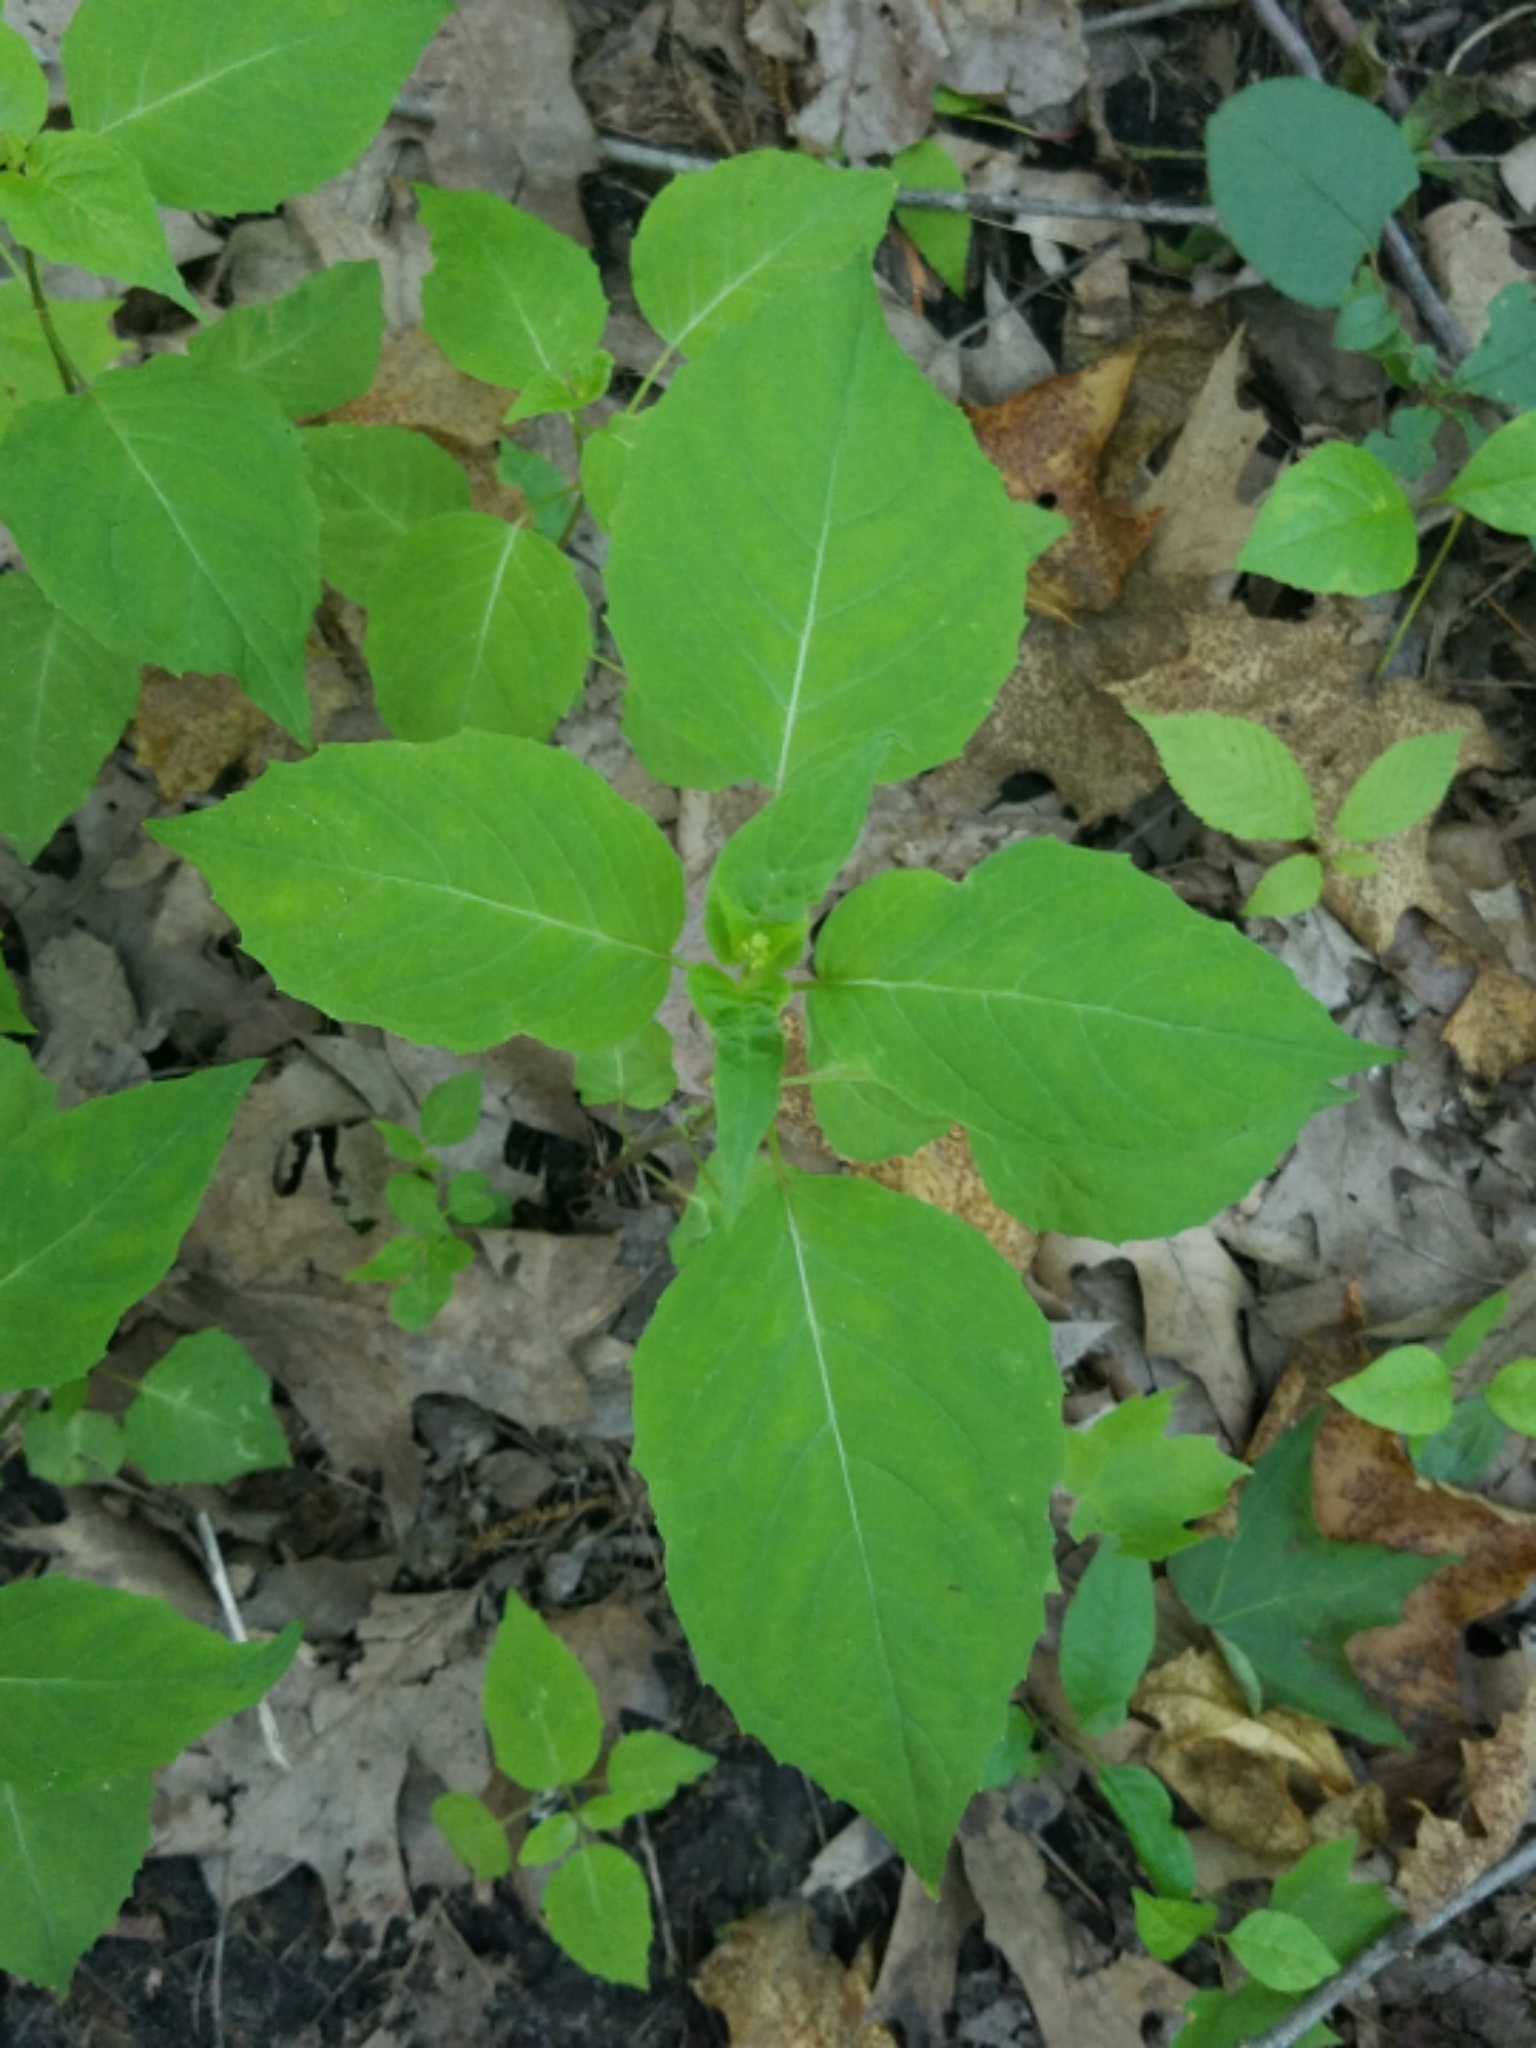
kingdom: Plantae
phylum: Tracheophyta
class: Magnoliopsida
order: Myrtales
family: Onagraceae
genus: Circaea
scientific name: Circaea canadensis
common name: Broad-leaved enchanter's nightshade
